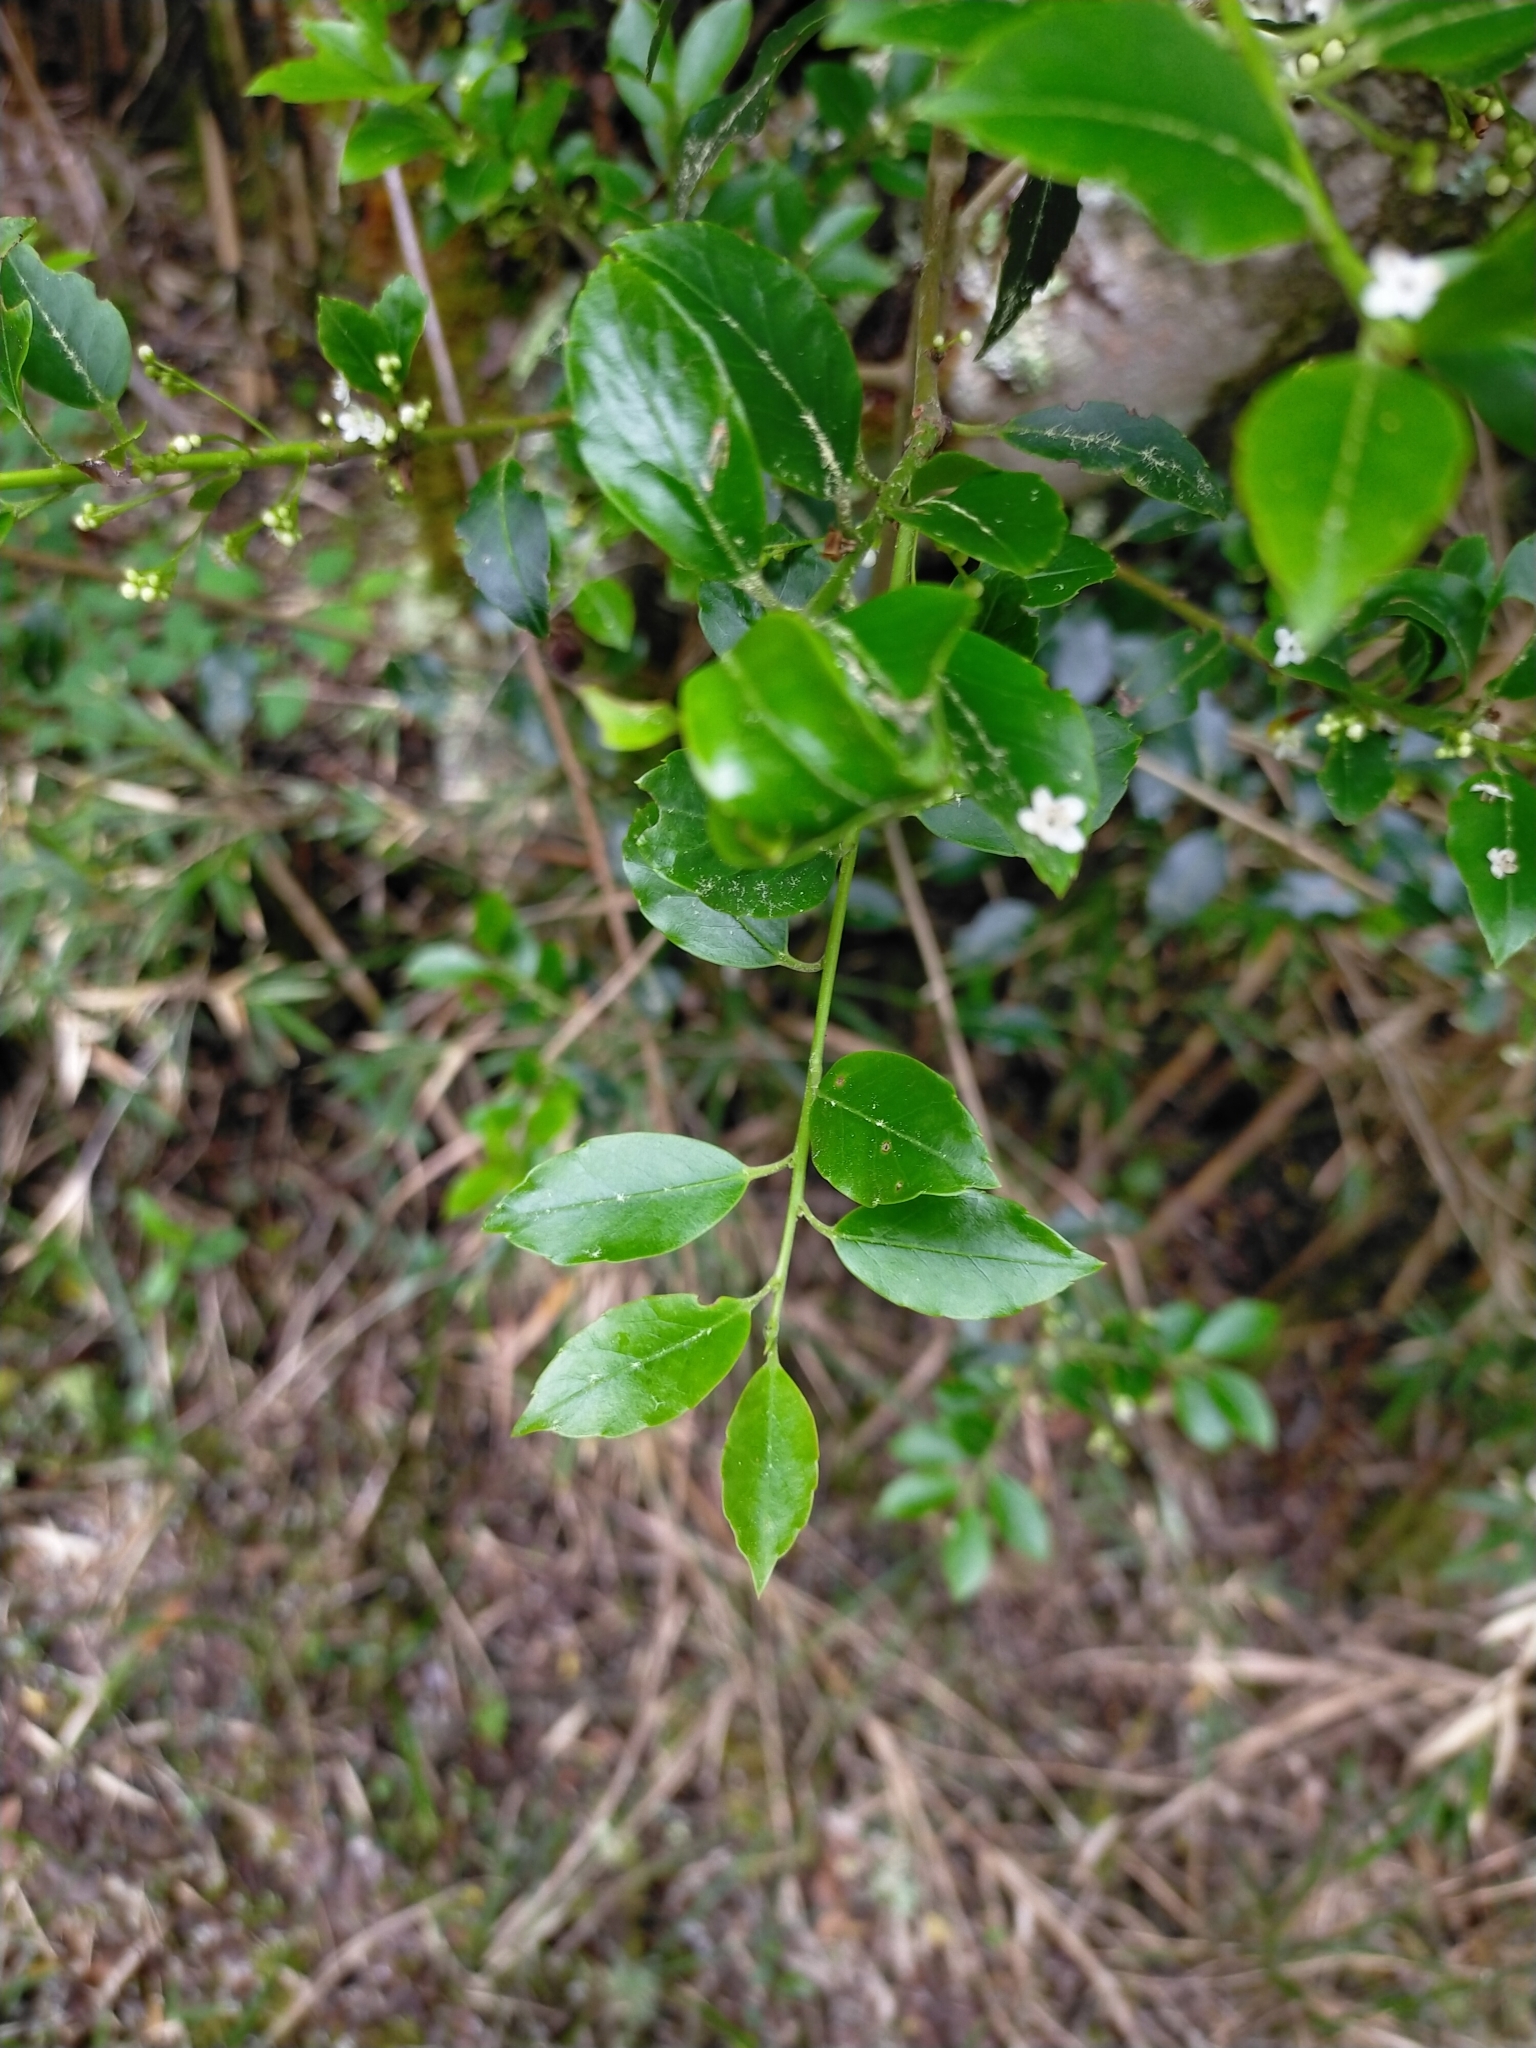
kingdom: Plantae
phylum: Tracheophyta
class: Magnoliopsida
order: Aquifoliales
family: Aquifoliaceae
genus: Ilex
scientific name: Ilex asprella
